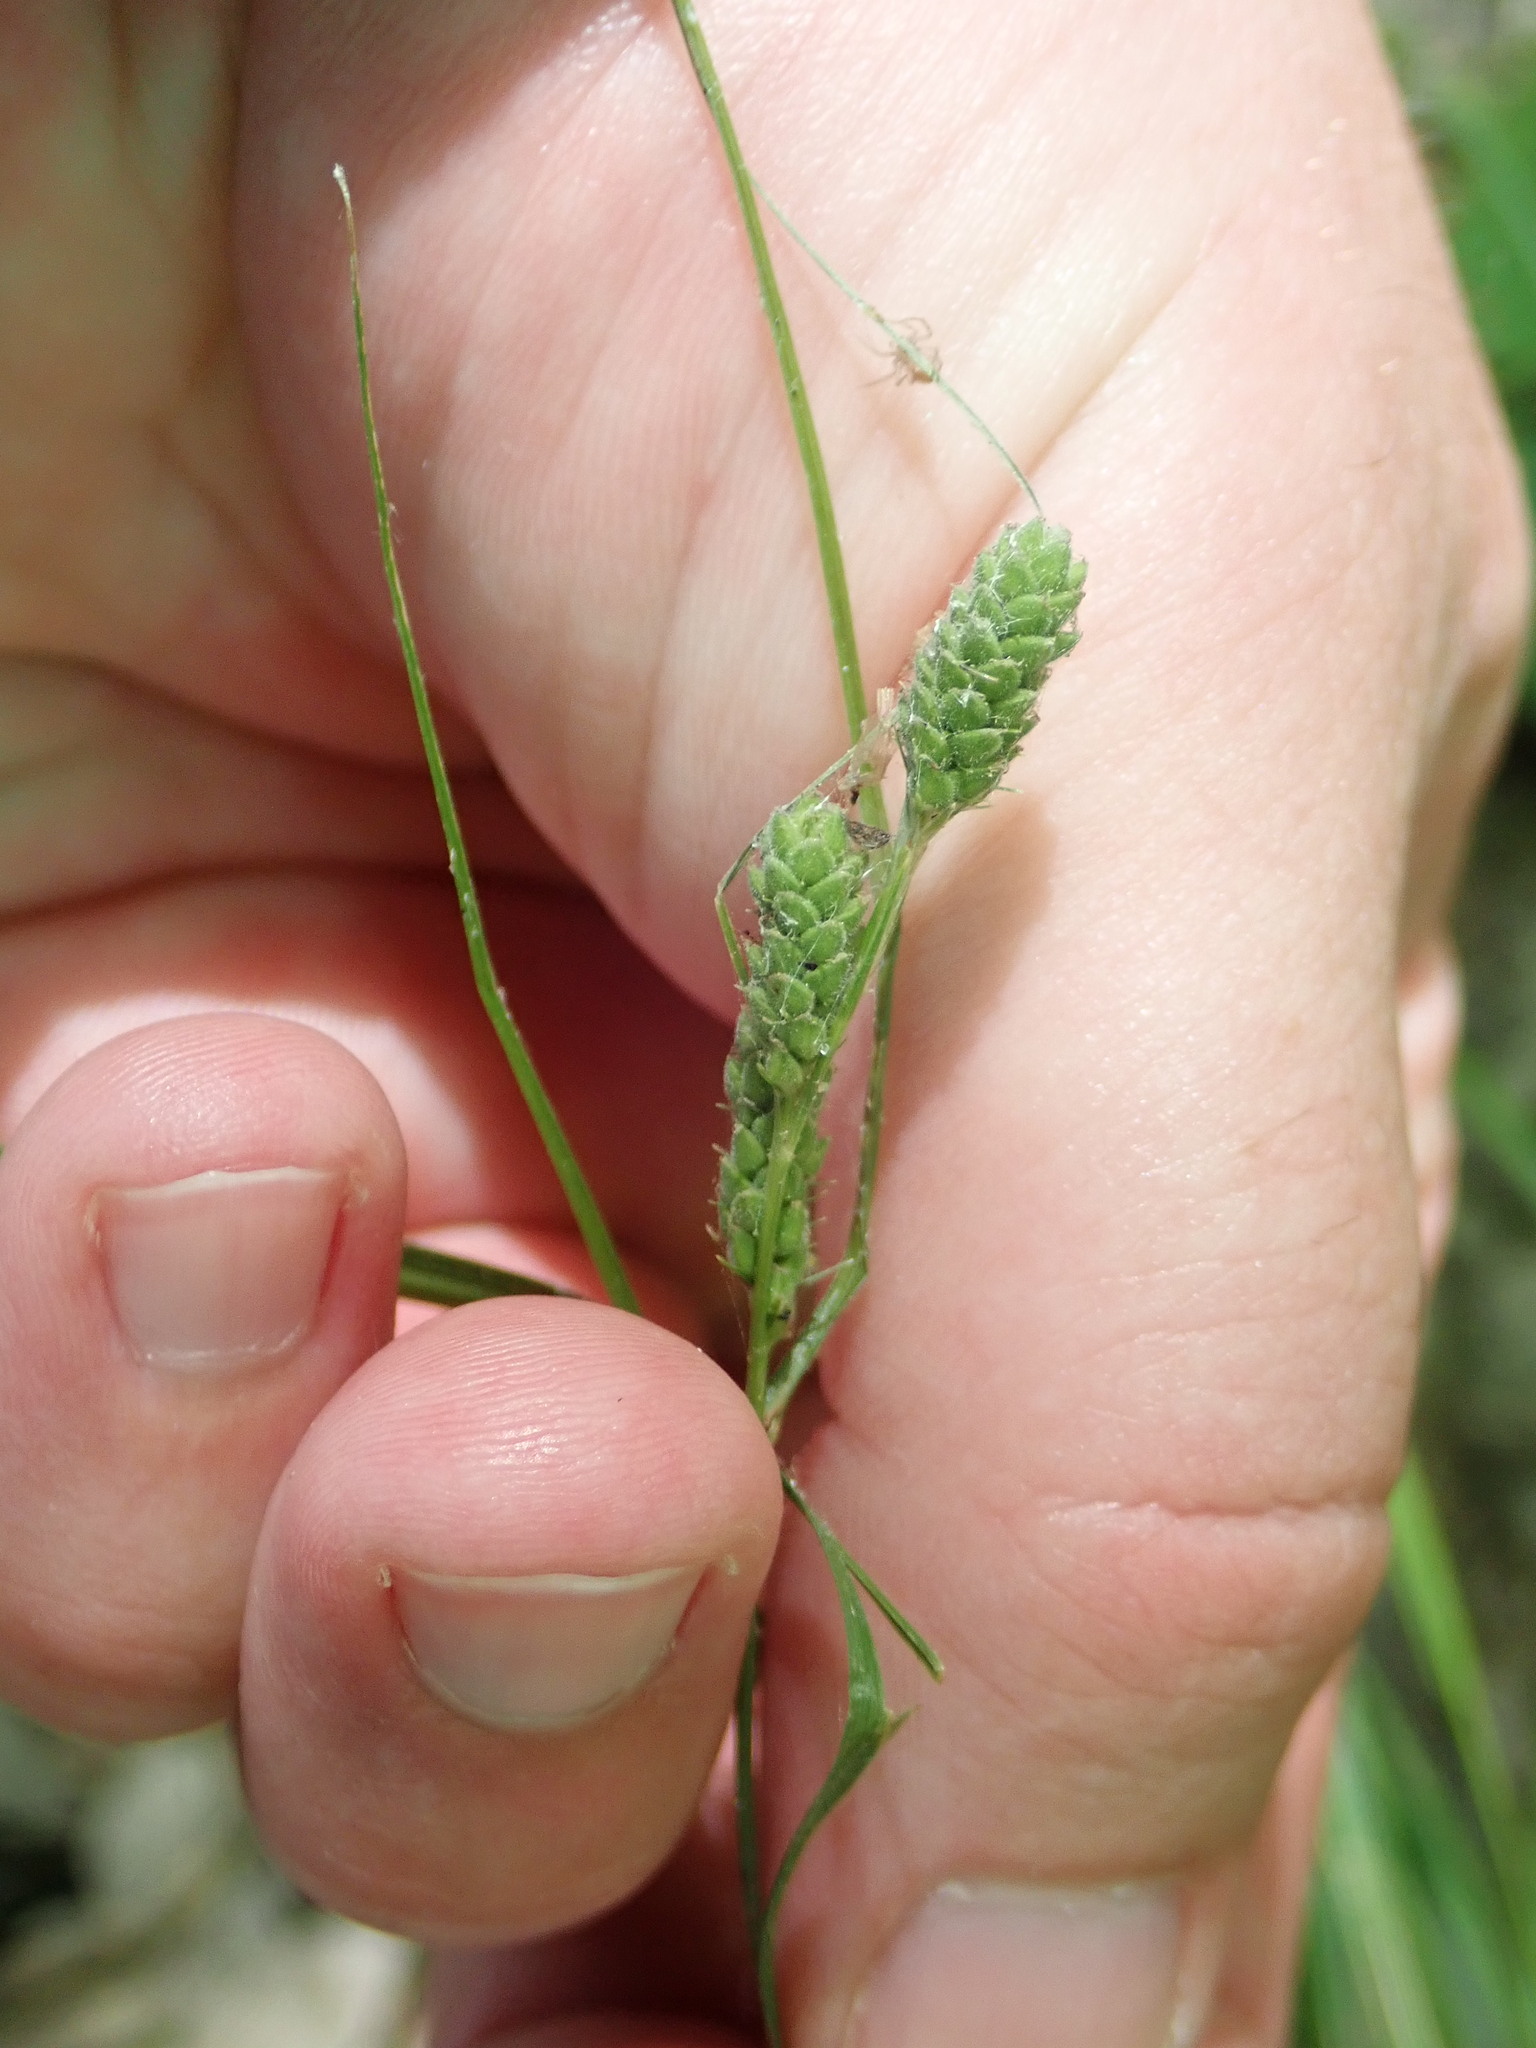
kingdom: Plantae
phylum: Tracheophyta
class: Liliopsida
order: Poales
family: Cyperaceae
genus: Carex
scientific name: Carex swanii
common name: Downy green sedge
